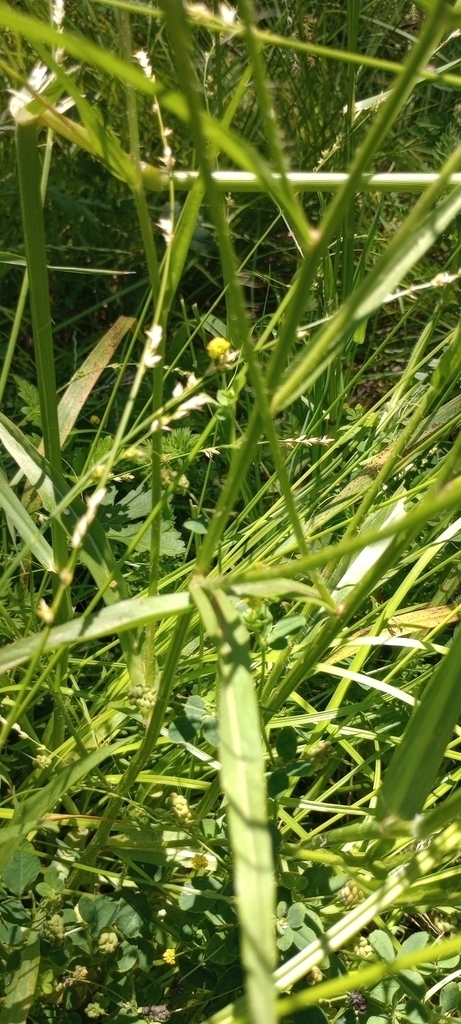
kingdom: Plantae
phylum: Tracheophyta
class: Magnoliopsida
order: Fabales
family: Fabaceae
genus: Medicago
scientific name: Medicago lupulina
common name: Black medick
